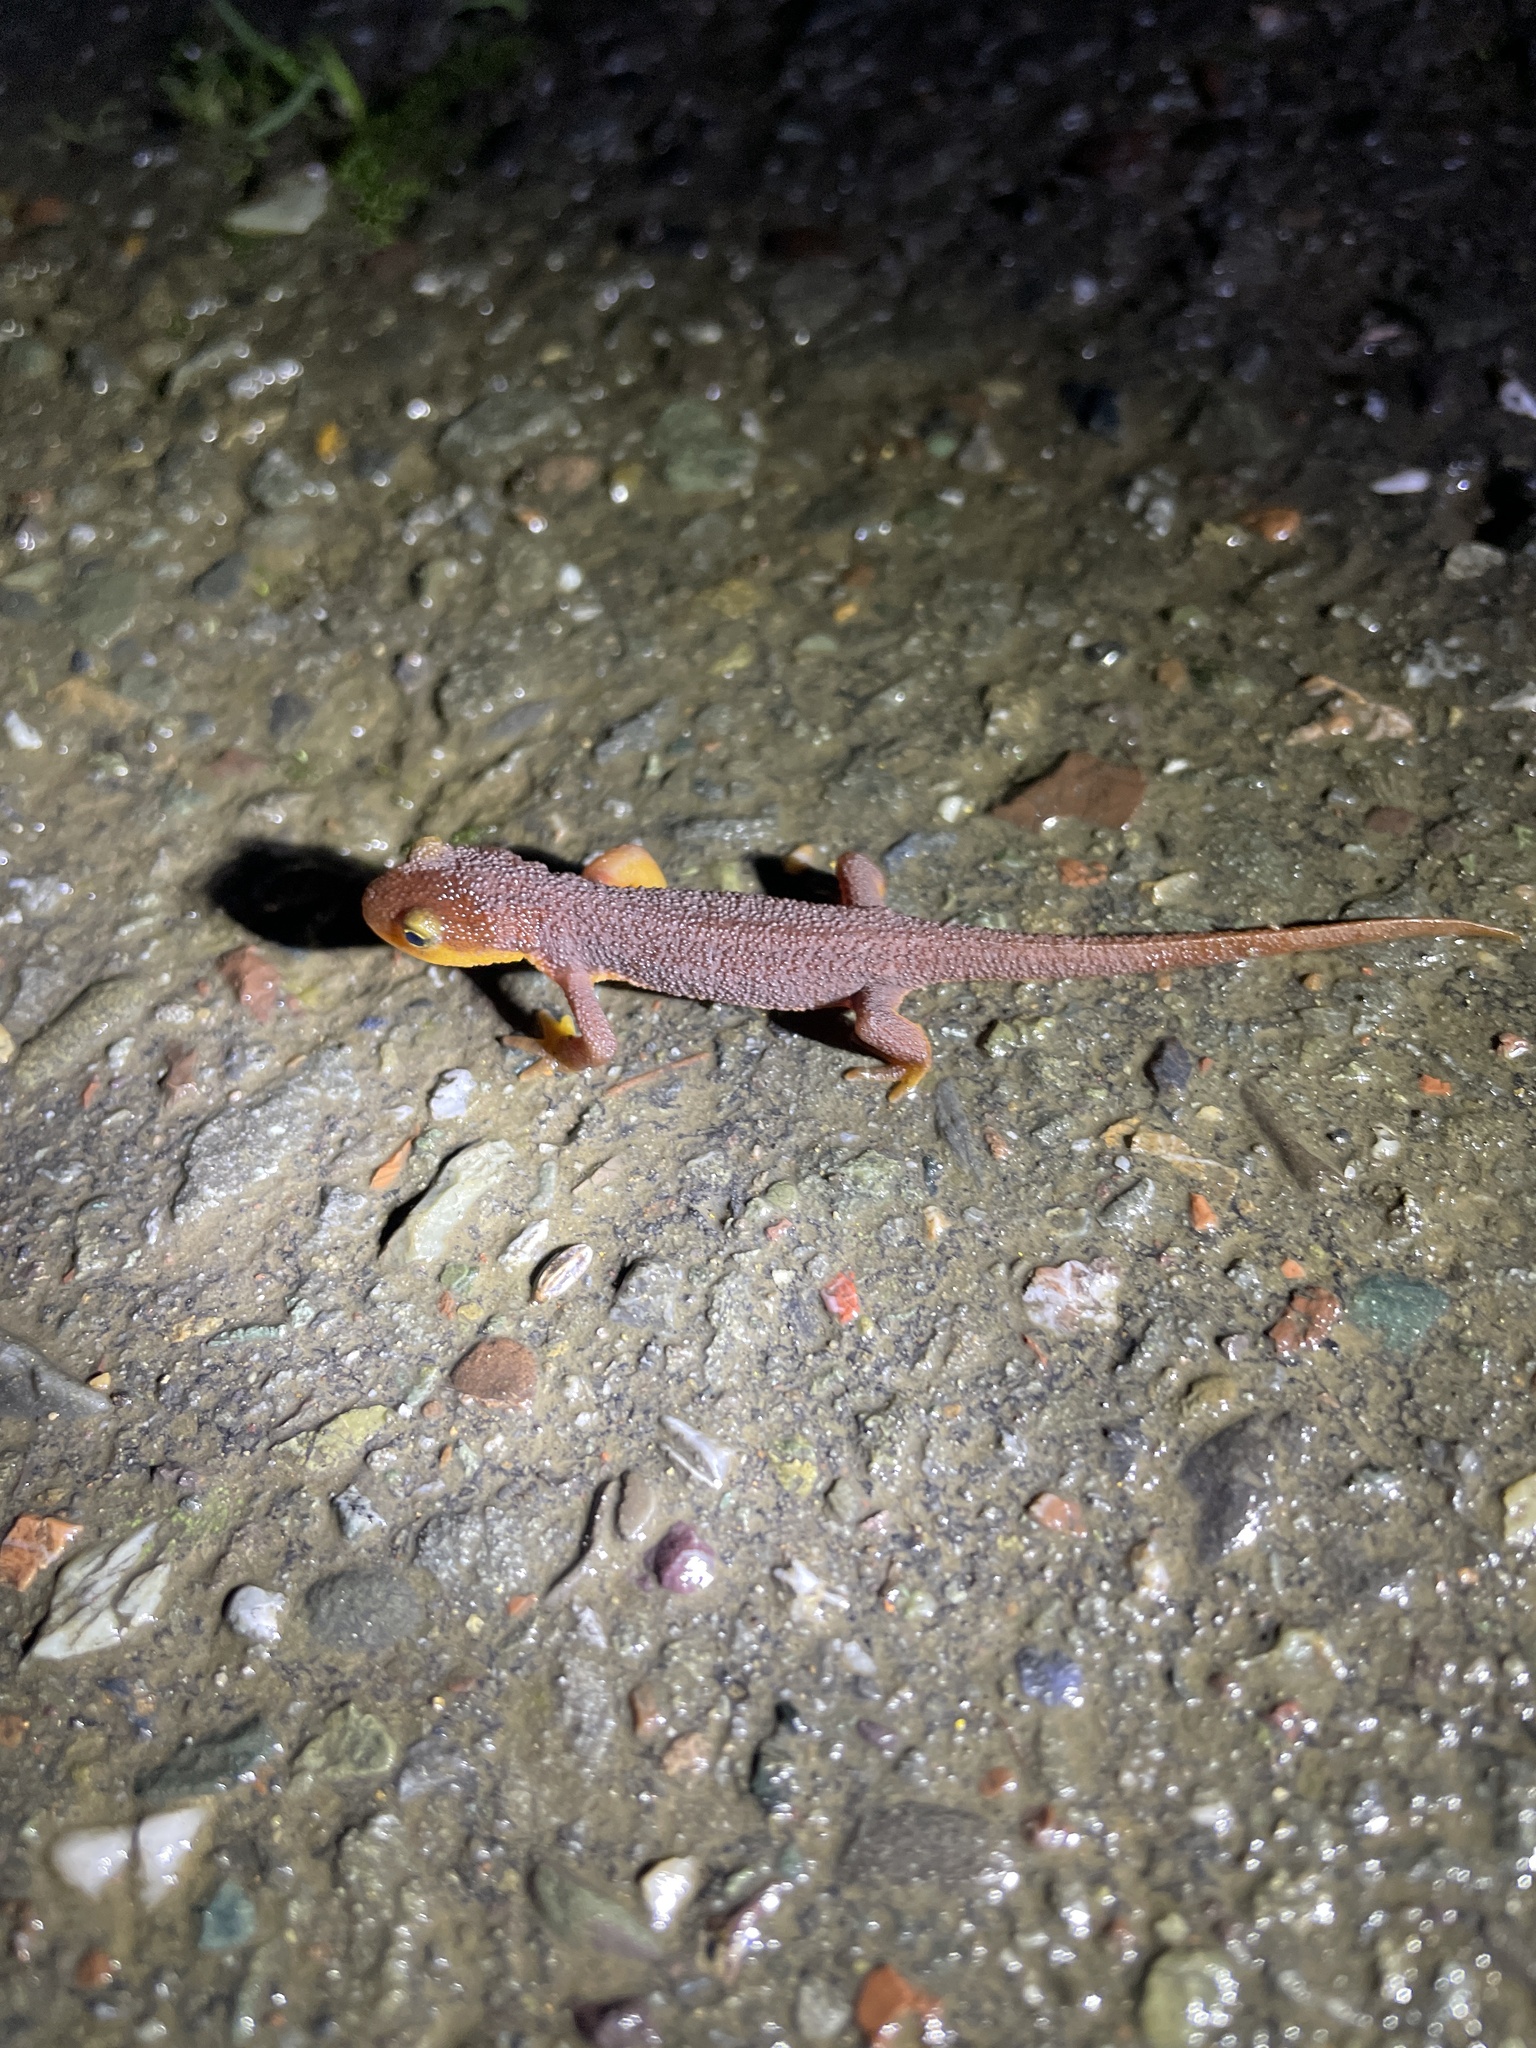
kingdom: Animalia
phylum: Chordata
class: Amphibia
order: Caudata
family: Salamandridae
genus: Taricha
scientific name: Taricha torosa
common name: California newt
